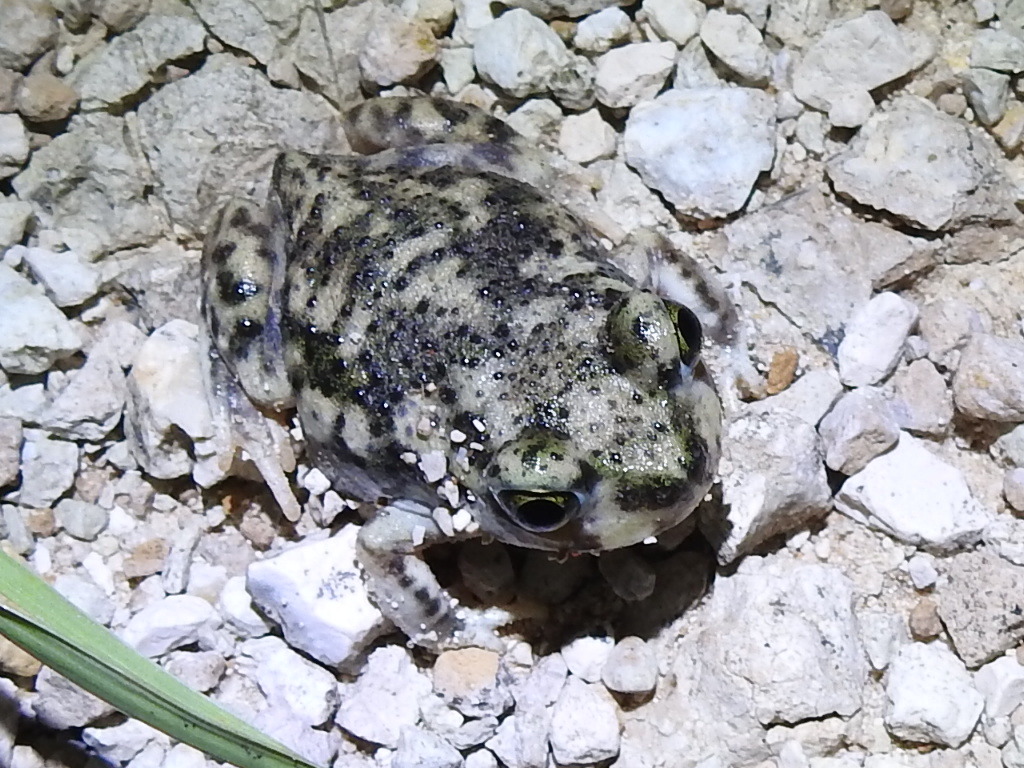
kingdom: Animalia
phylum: Chordata
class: Amphibia
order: Anura
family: Scaphiopodidae
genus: Scaphiopus
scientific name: Scaphiopus couchii
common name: Couch's spadefoot toad
